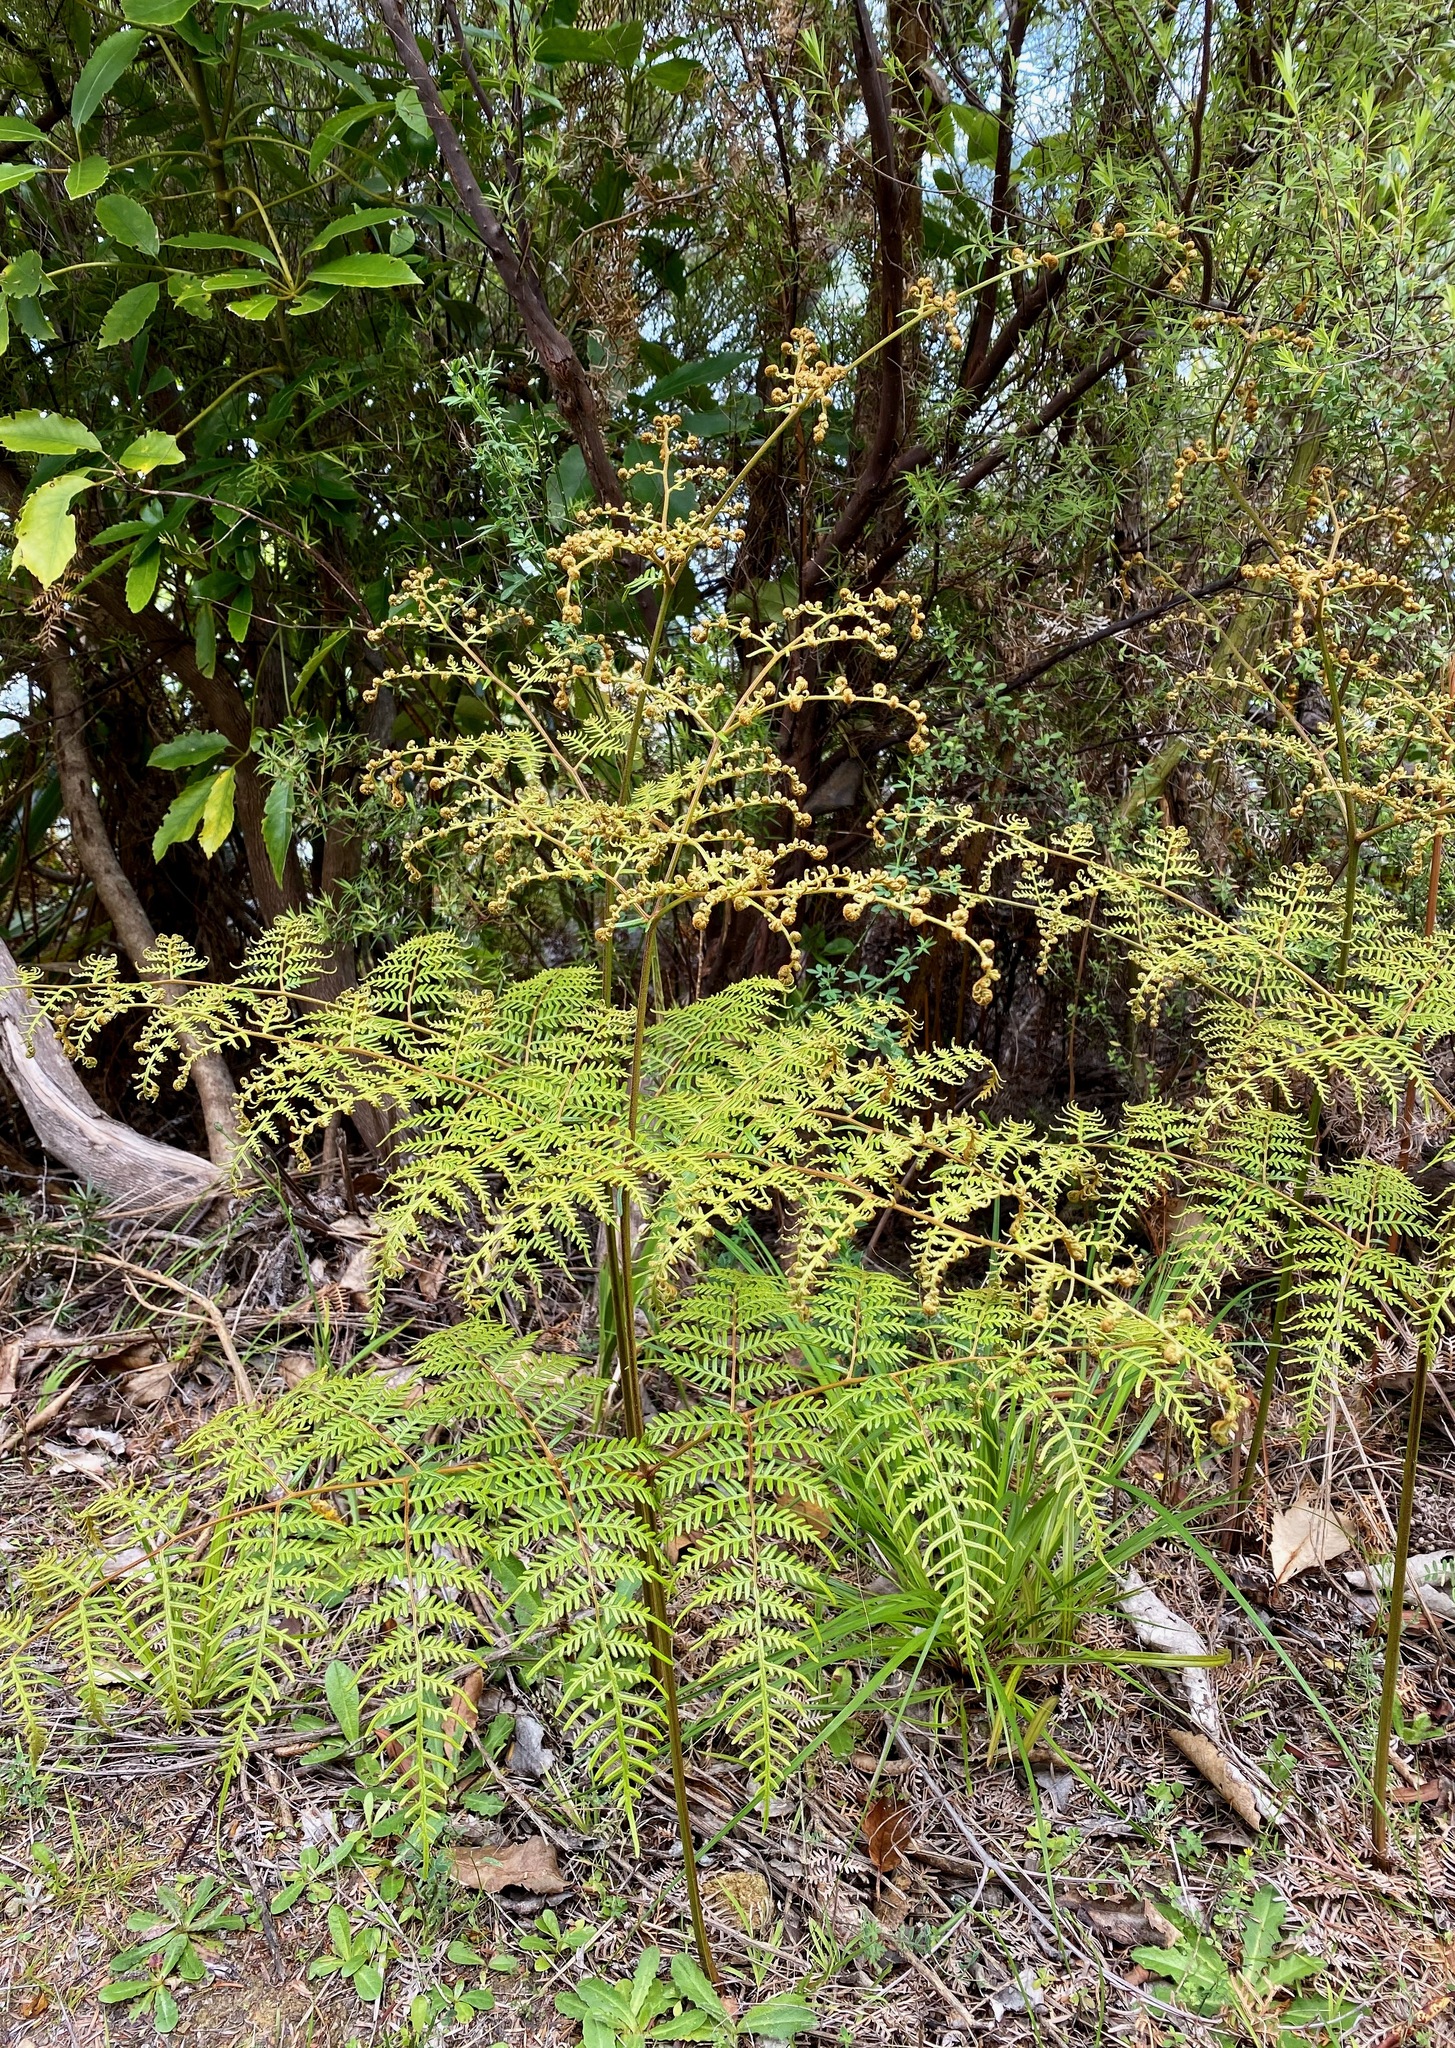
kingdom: Plantae
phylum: Tracheophyta
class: Polypodiopsida
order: Polypodiales
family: Dennstaedtiaceae
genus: Pteridium
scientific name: Pteridium esculentum
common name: Bracken fern
